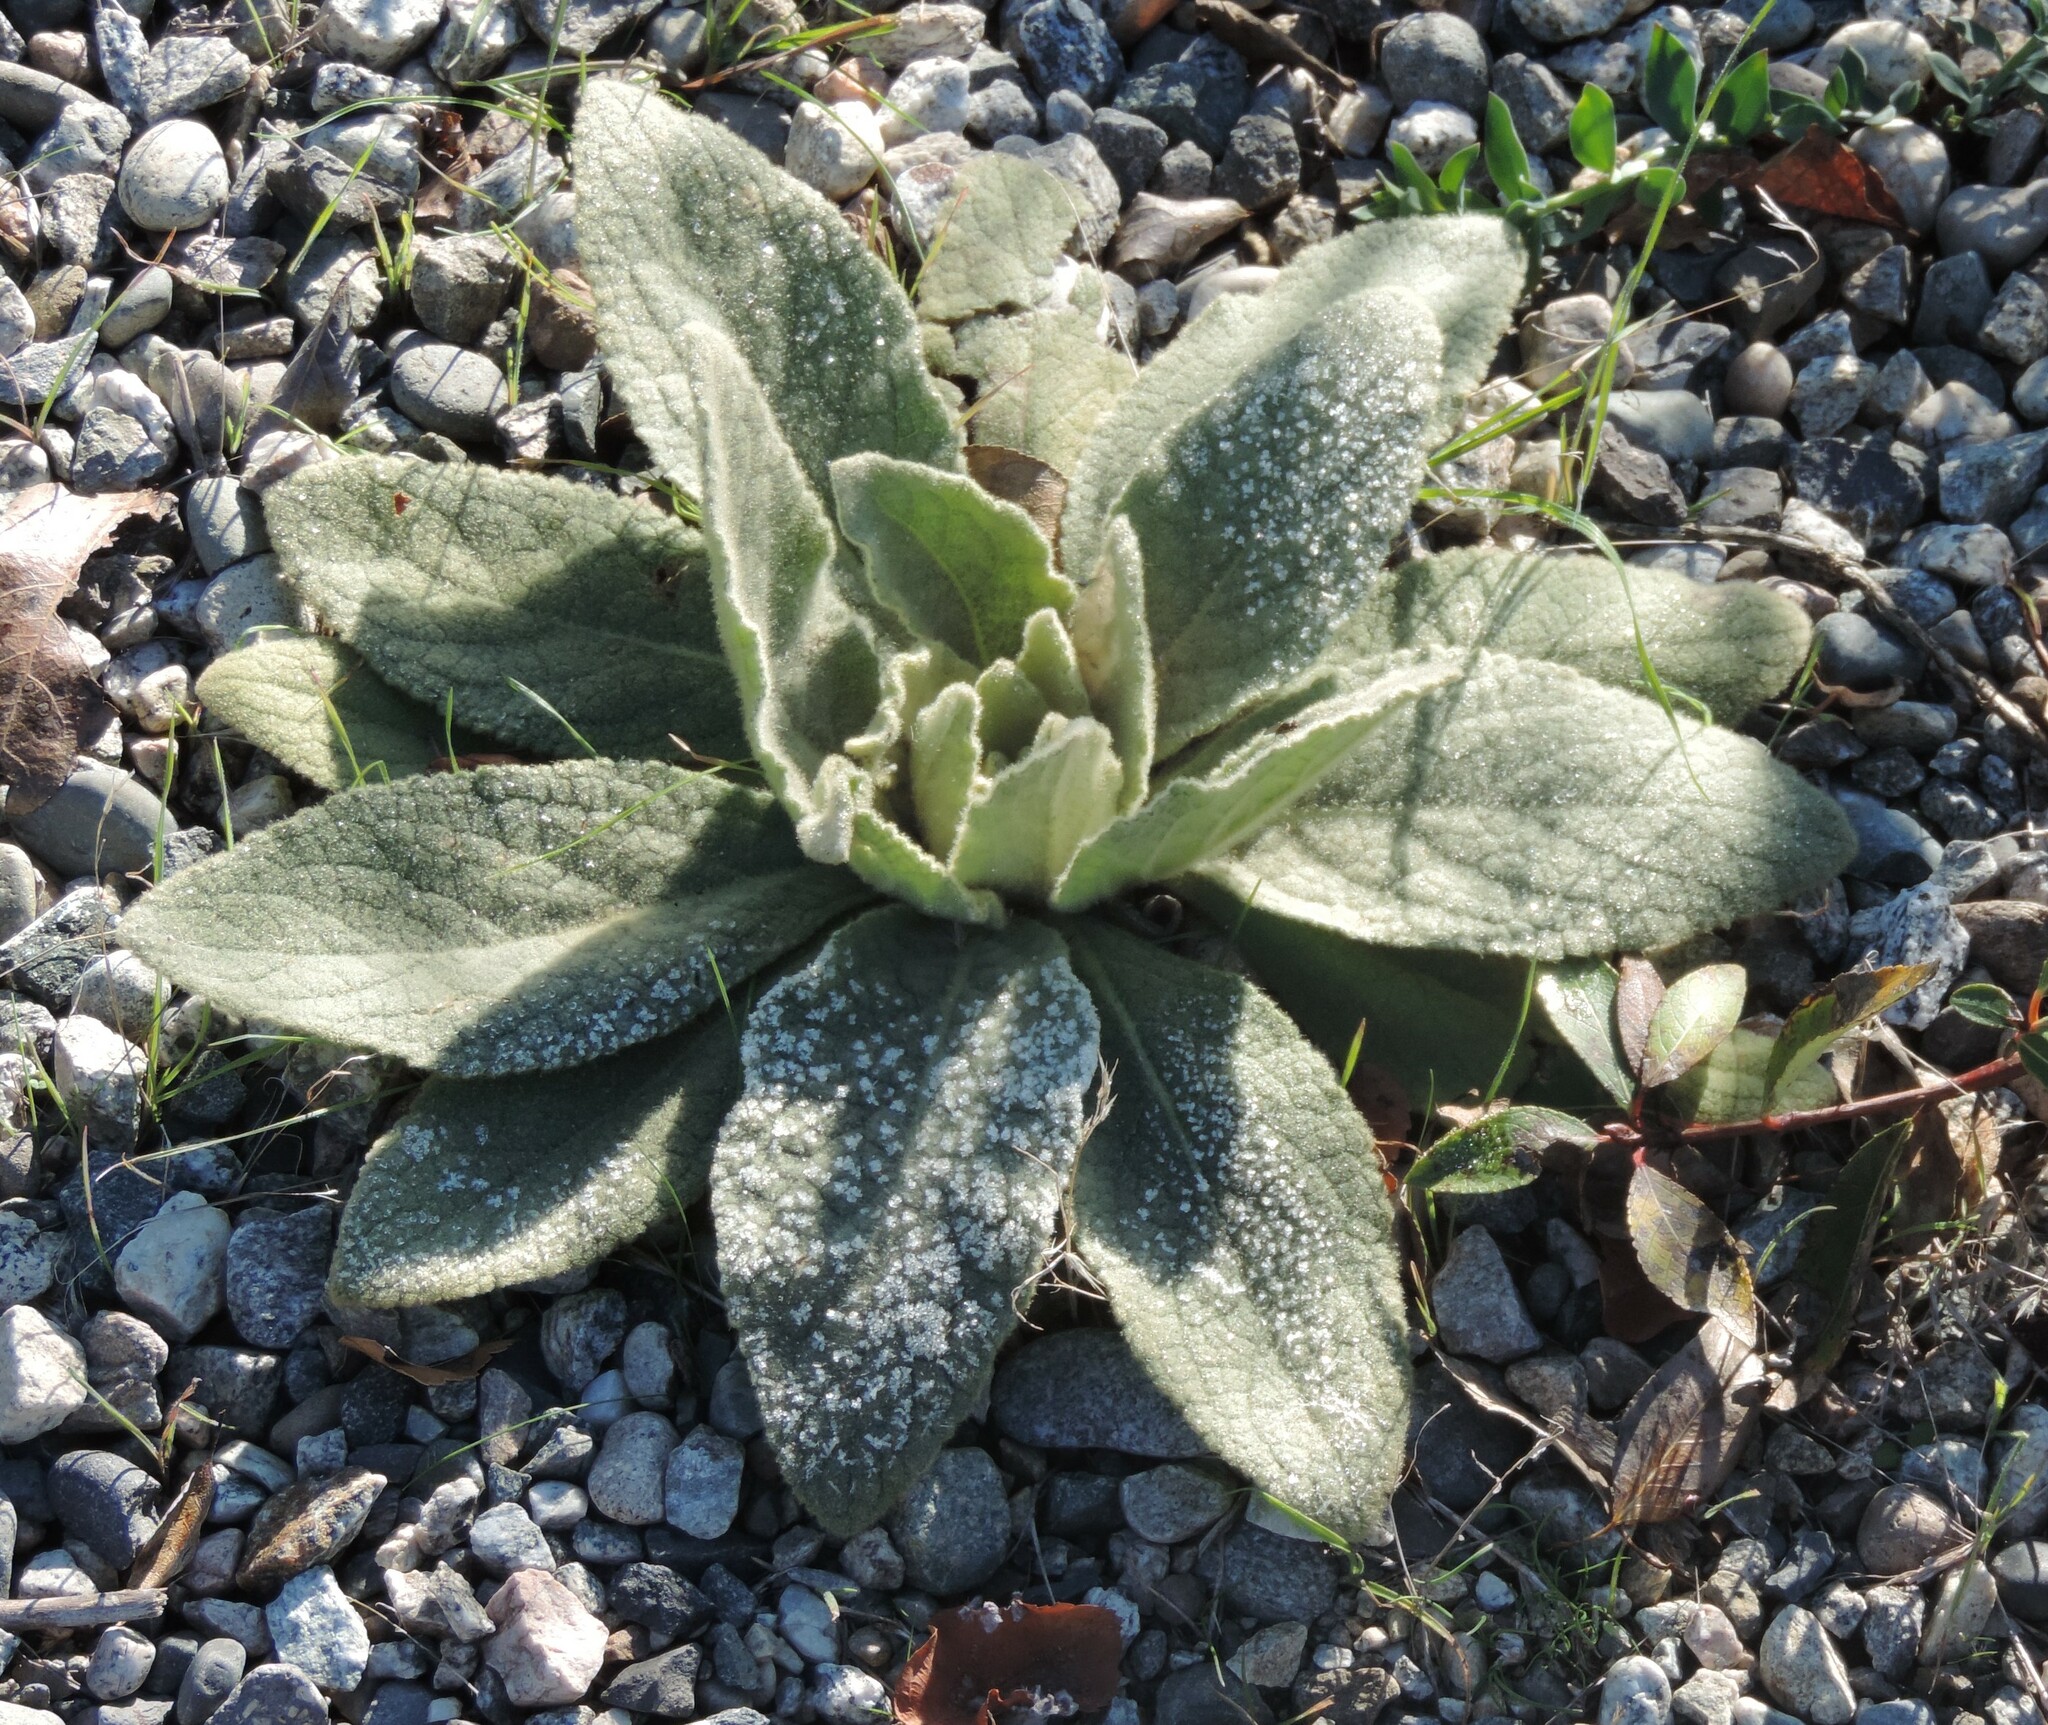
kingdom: Plantae
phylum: Tracheophyta
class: Magnoliopsida
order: Lamiales
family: Scrophulariaceae
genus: Verbascum
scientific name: Verbascum thapsus
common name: Common mullein
